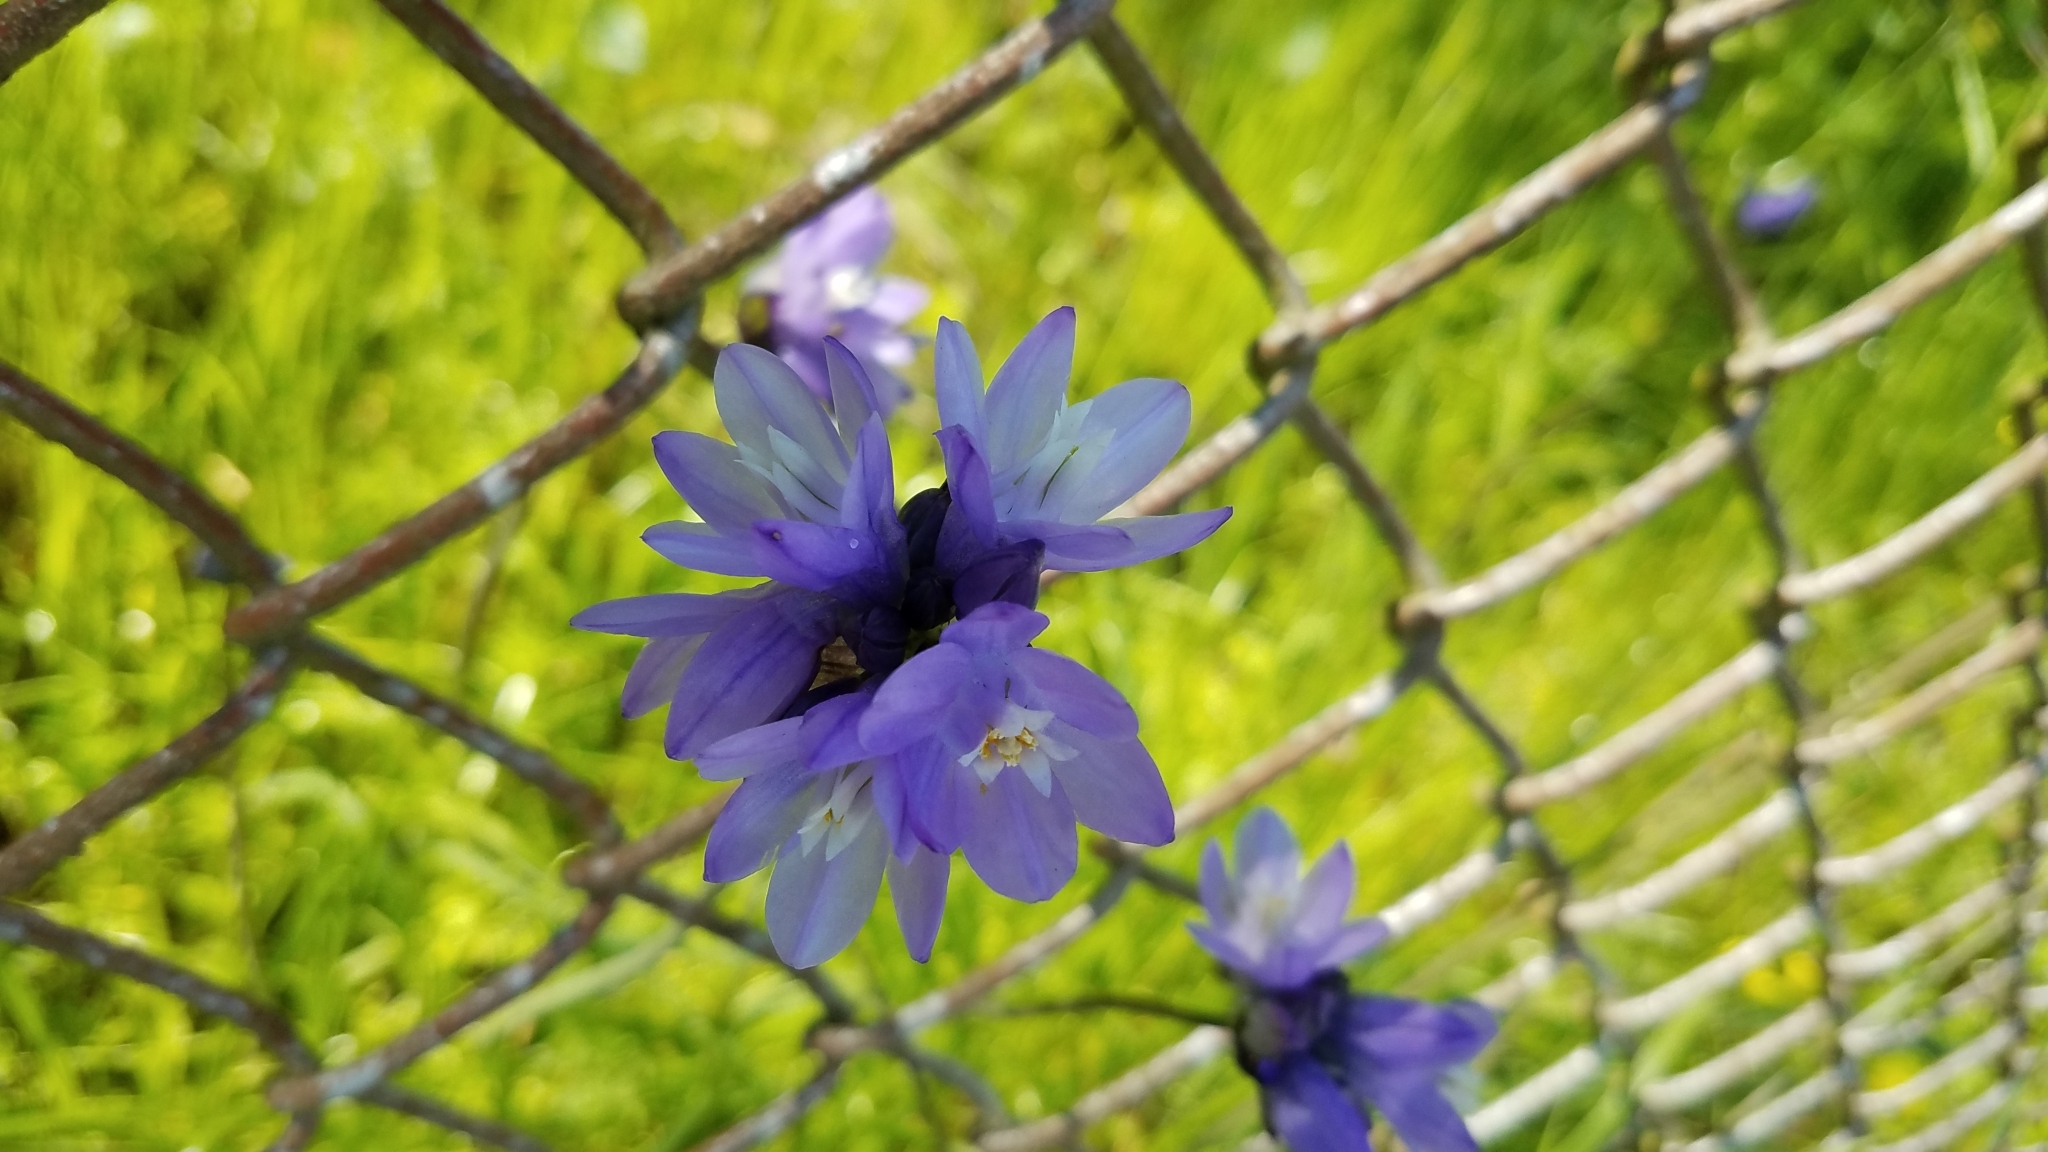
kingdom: Plantae
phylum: Tracheophyta
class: Liliopsida
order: Asparagales
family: Asparagaceae
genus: Dipterostemon
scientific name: Dipterostemon capitatus
